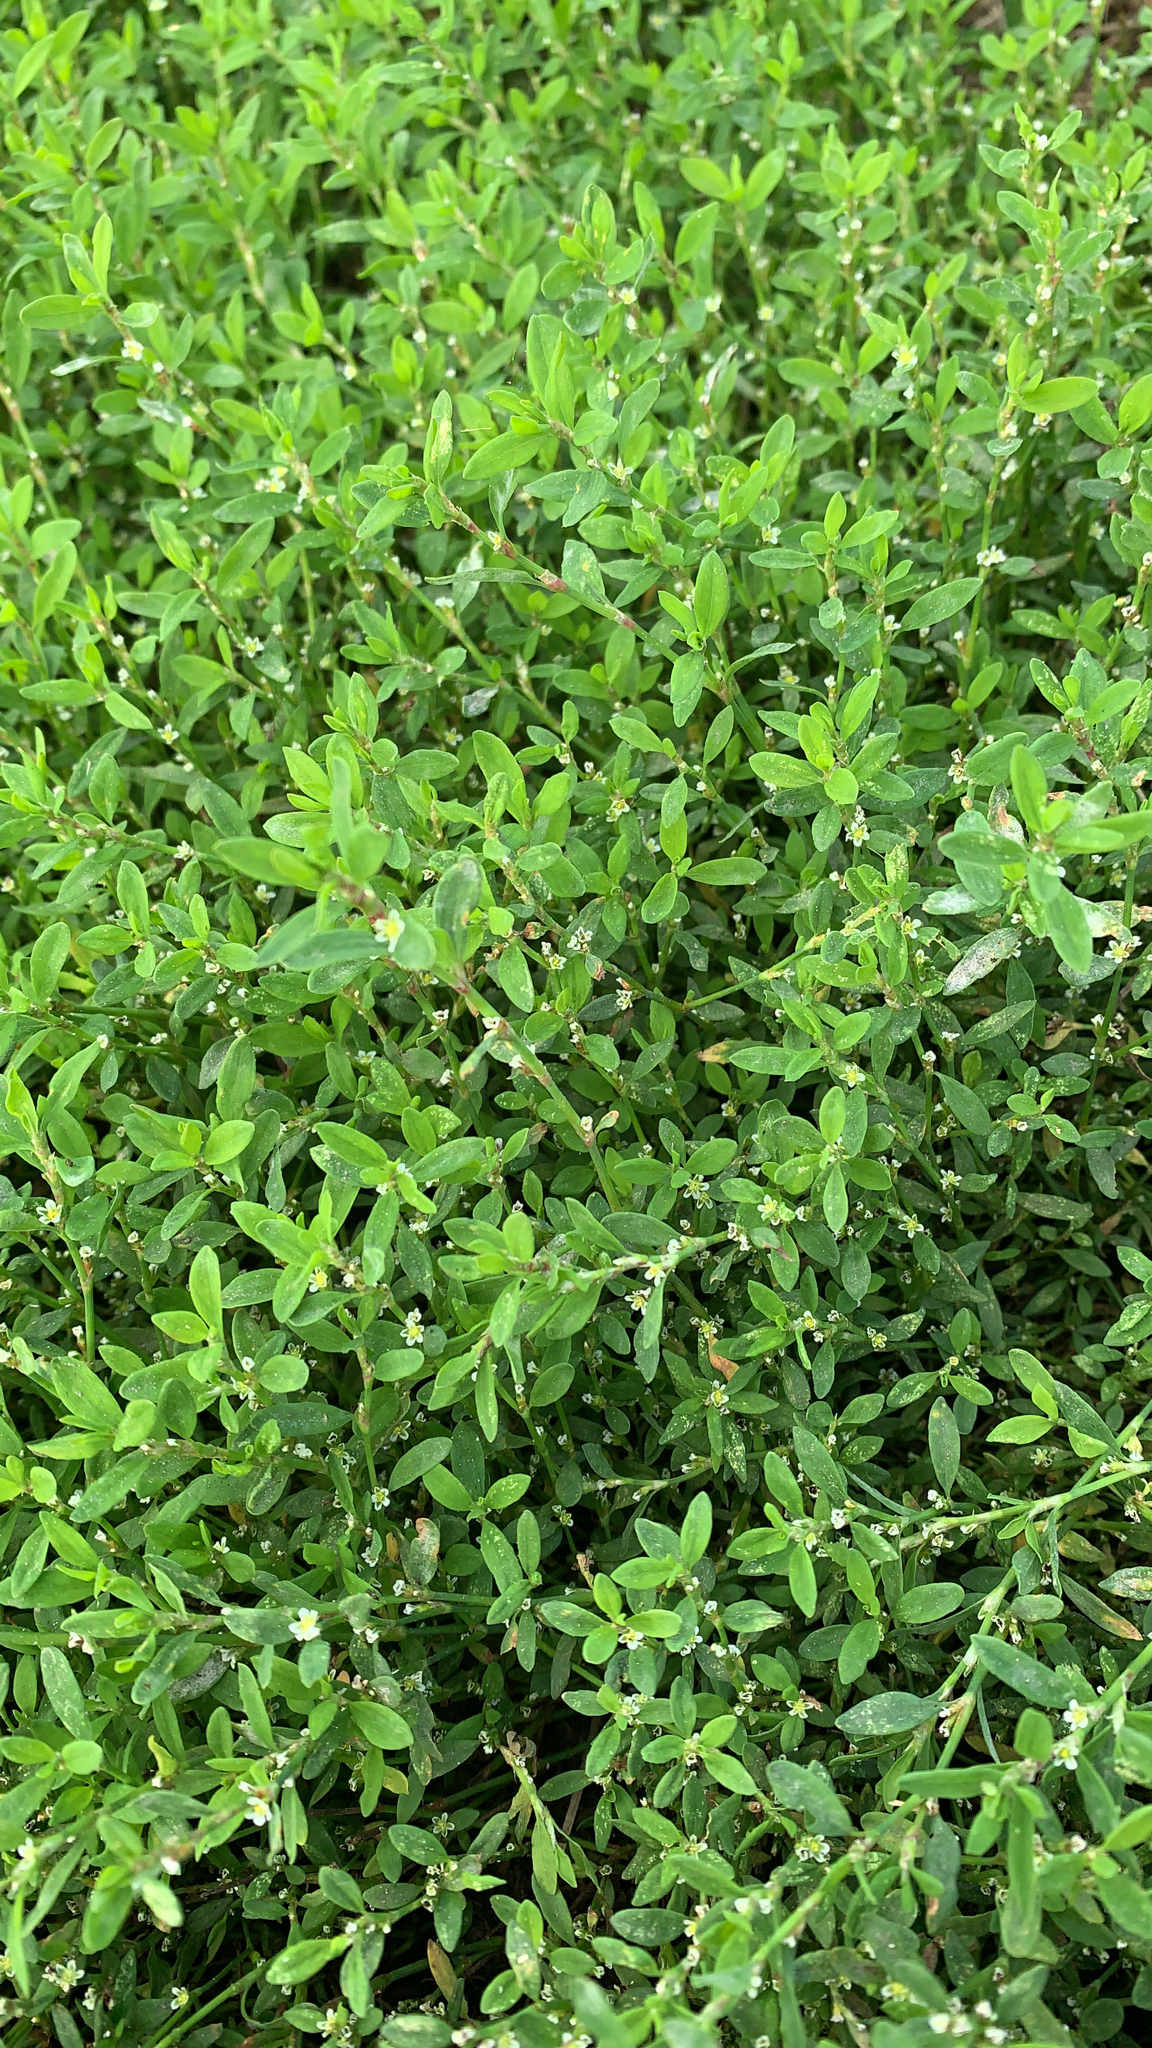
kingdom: Plantae
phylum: Tracheophyta
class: Magnoliopsida
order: Caryophyllales
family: Polygonaceae
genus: Polygonum
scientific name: Polygonum aviculare
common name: Prostrate knotweed
